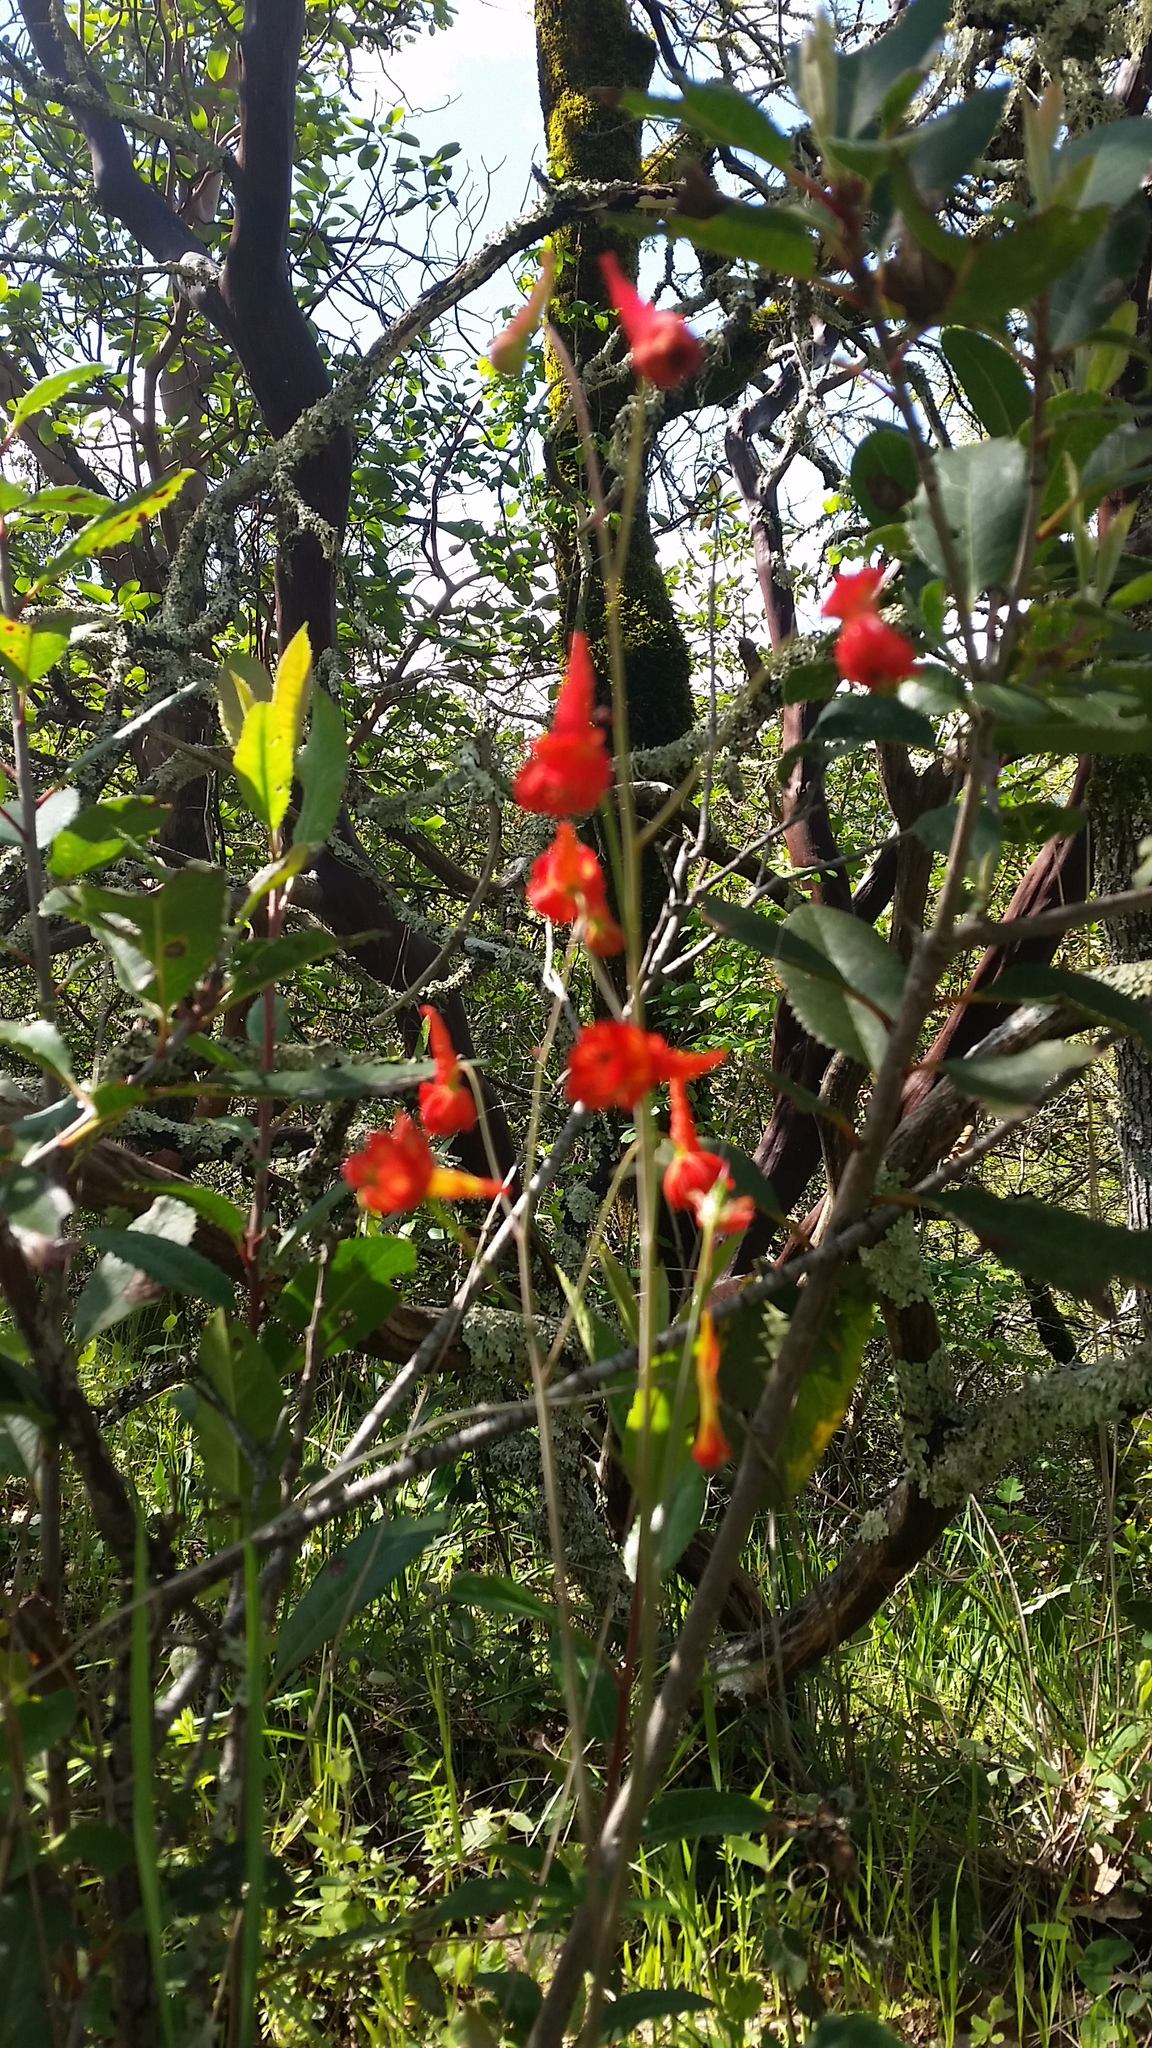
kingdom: Plantae
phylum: Tracheophyta
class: Magnoliopsida
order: Ranunculales
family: Ranunculaceae
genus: Delphinium
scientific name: Delphinium nudicaule
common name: Red larkspur
